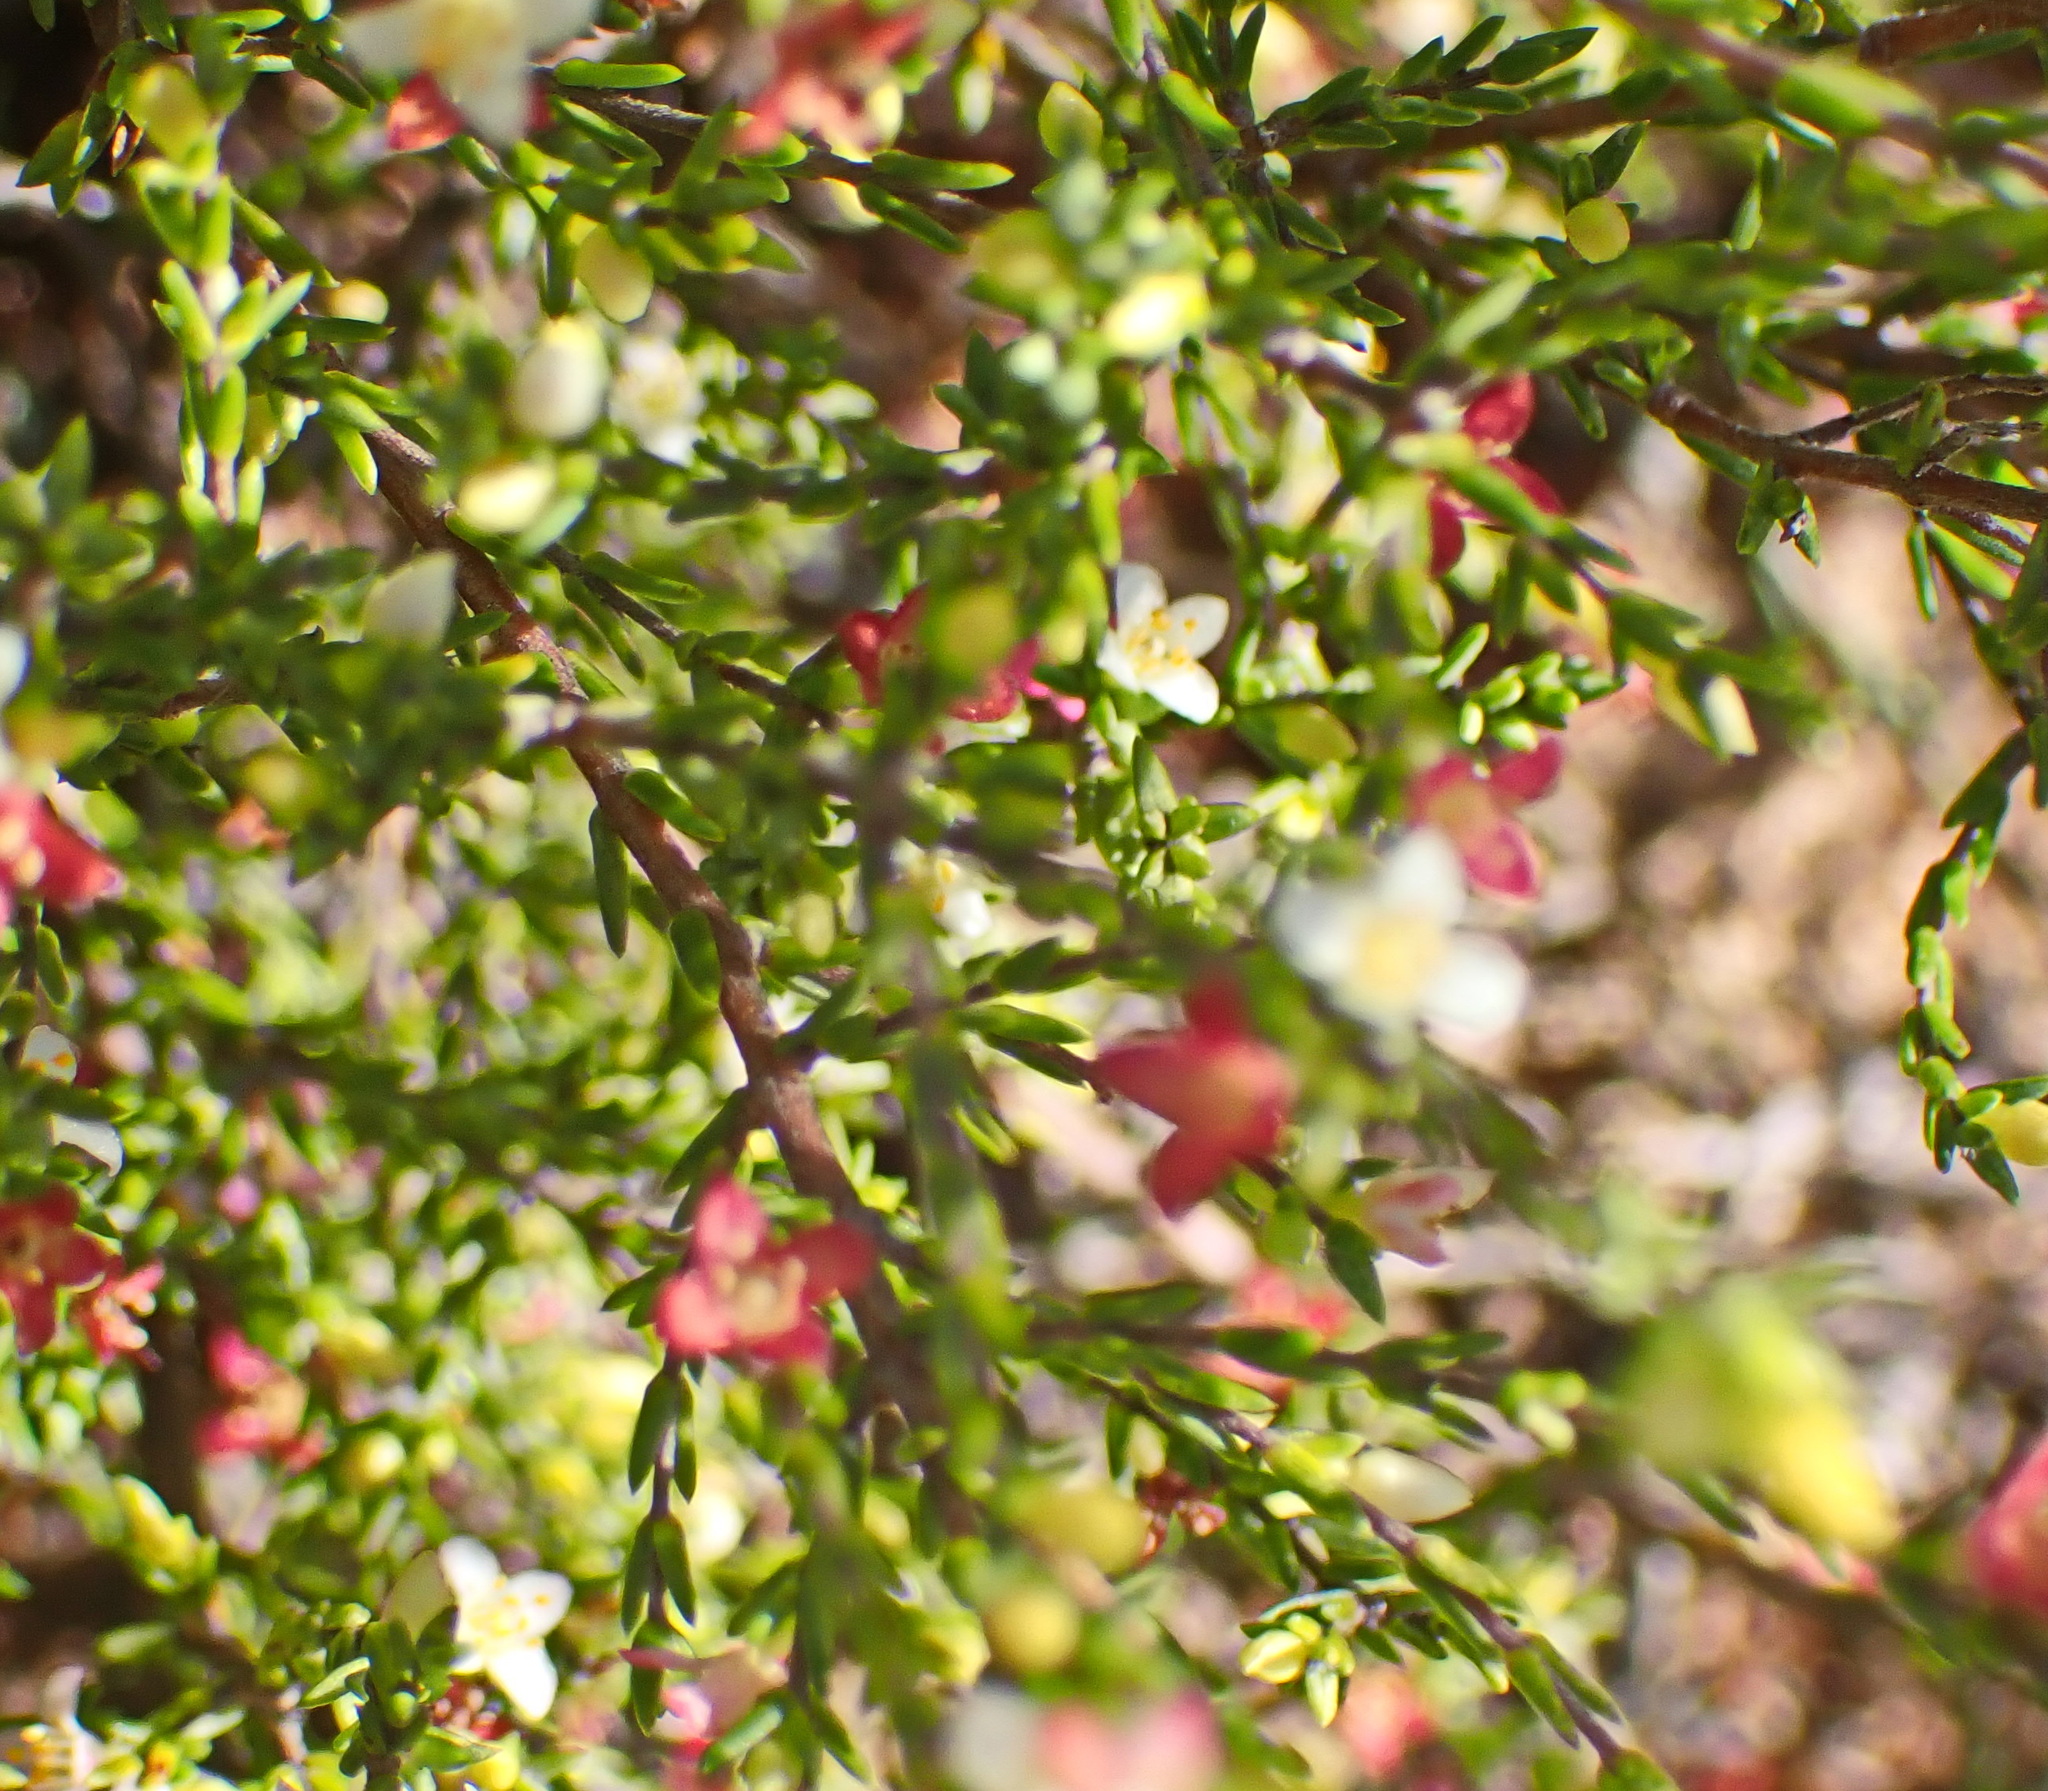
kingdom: Plantae
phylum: Tracheophyta
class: Magnoliopsida
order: Malvales
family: Thymelaeaceae
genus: Lachnaea
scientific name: Lachnaea axillaris
